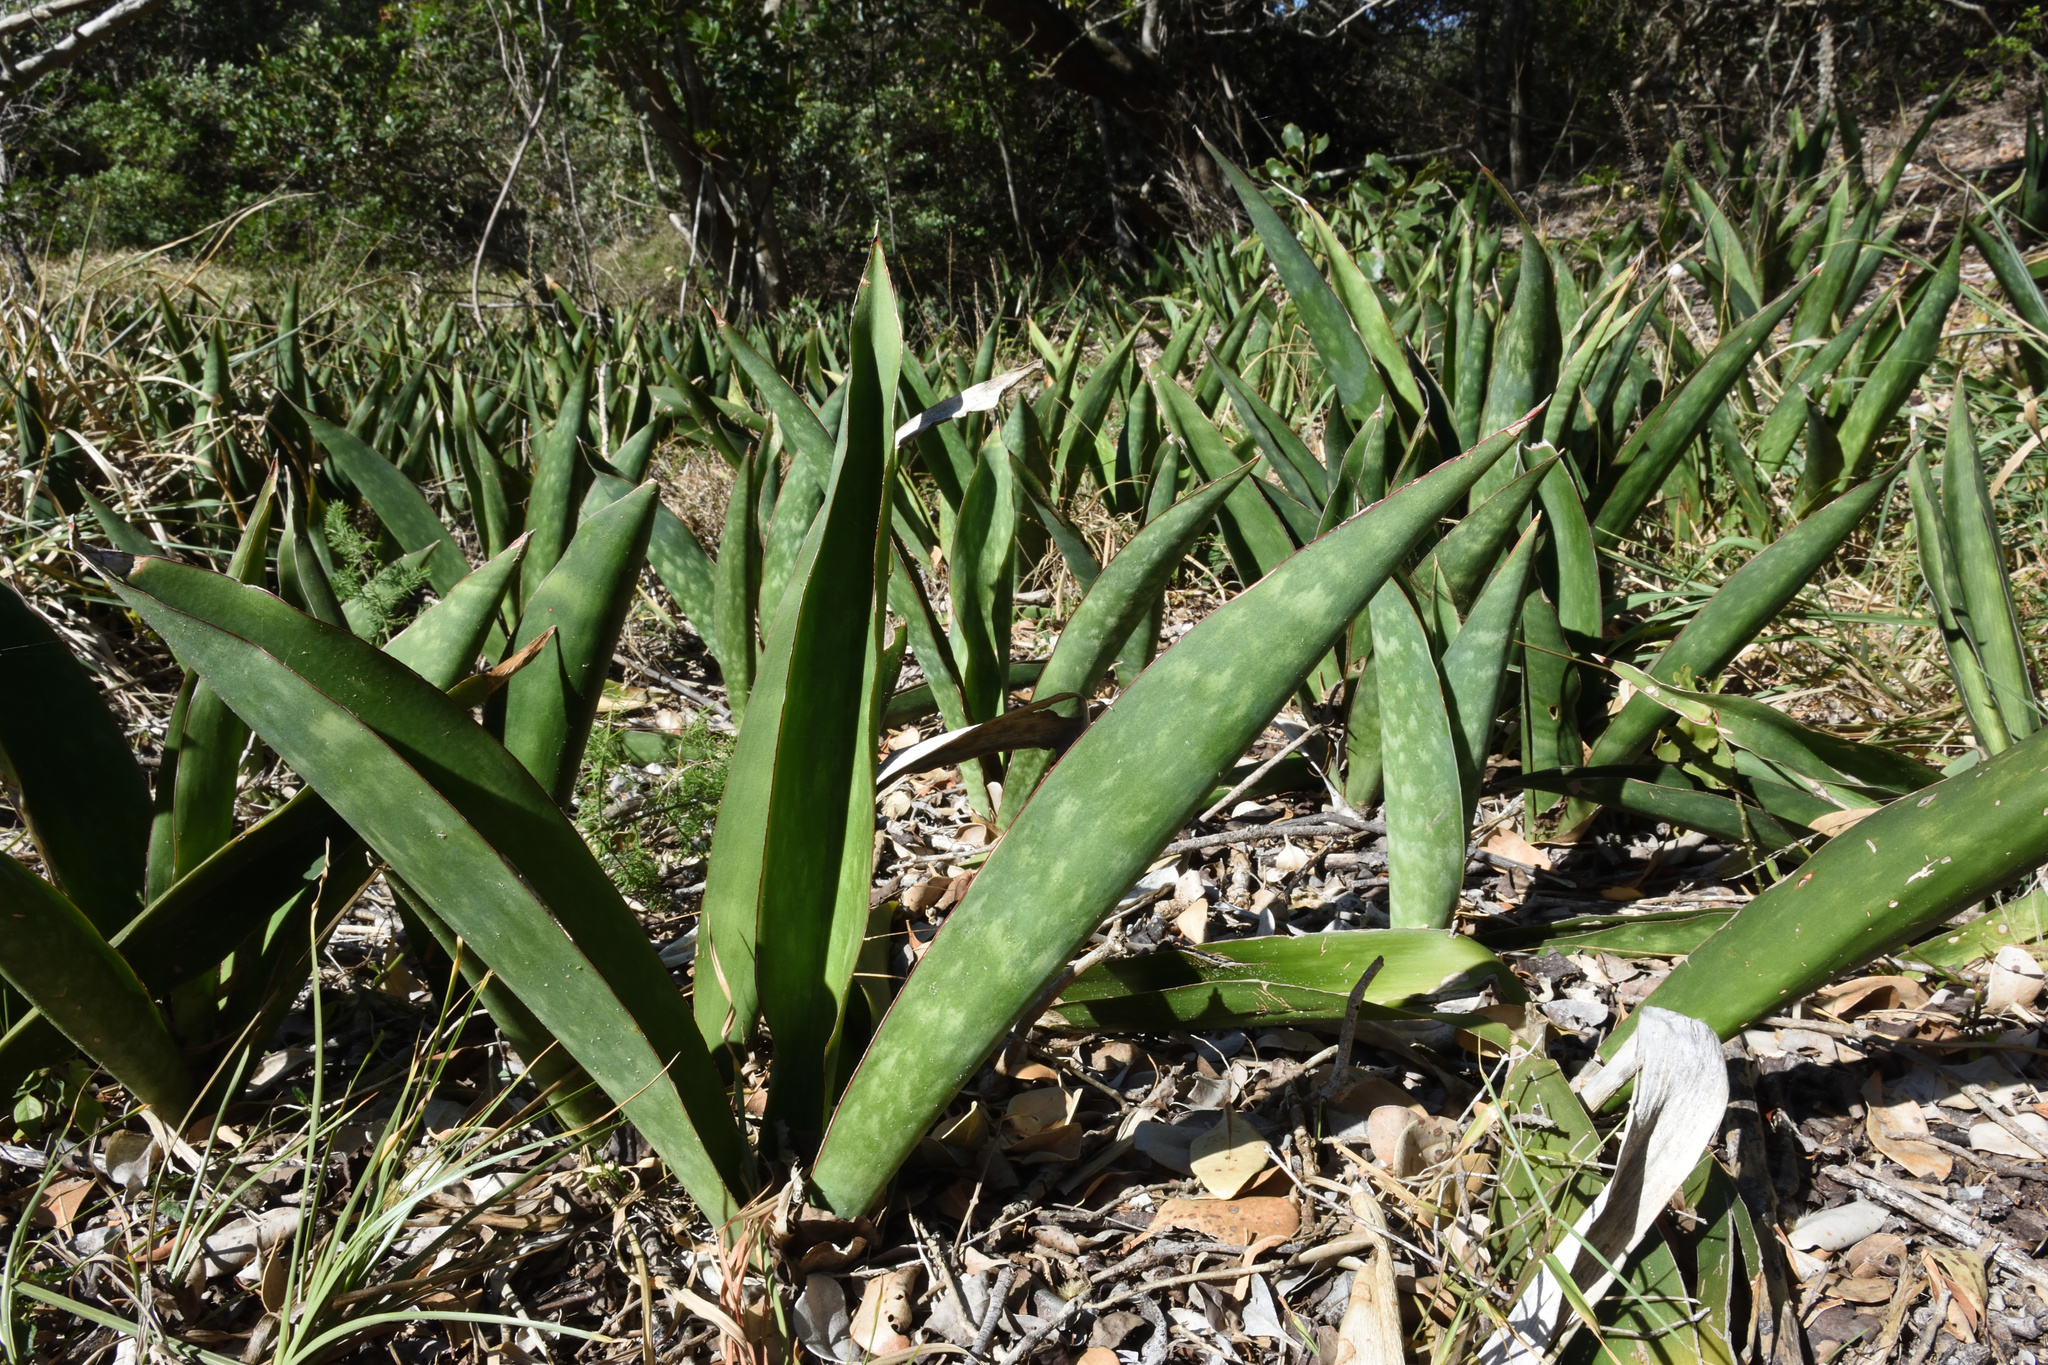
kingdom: Plantae
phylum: Tracheophyta
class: Liliopsida
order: Asparagales
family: Asparagaceae
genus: Dracaena
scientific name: Dracaena hyacinthoides
